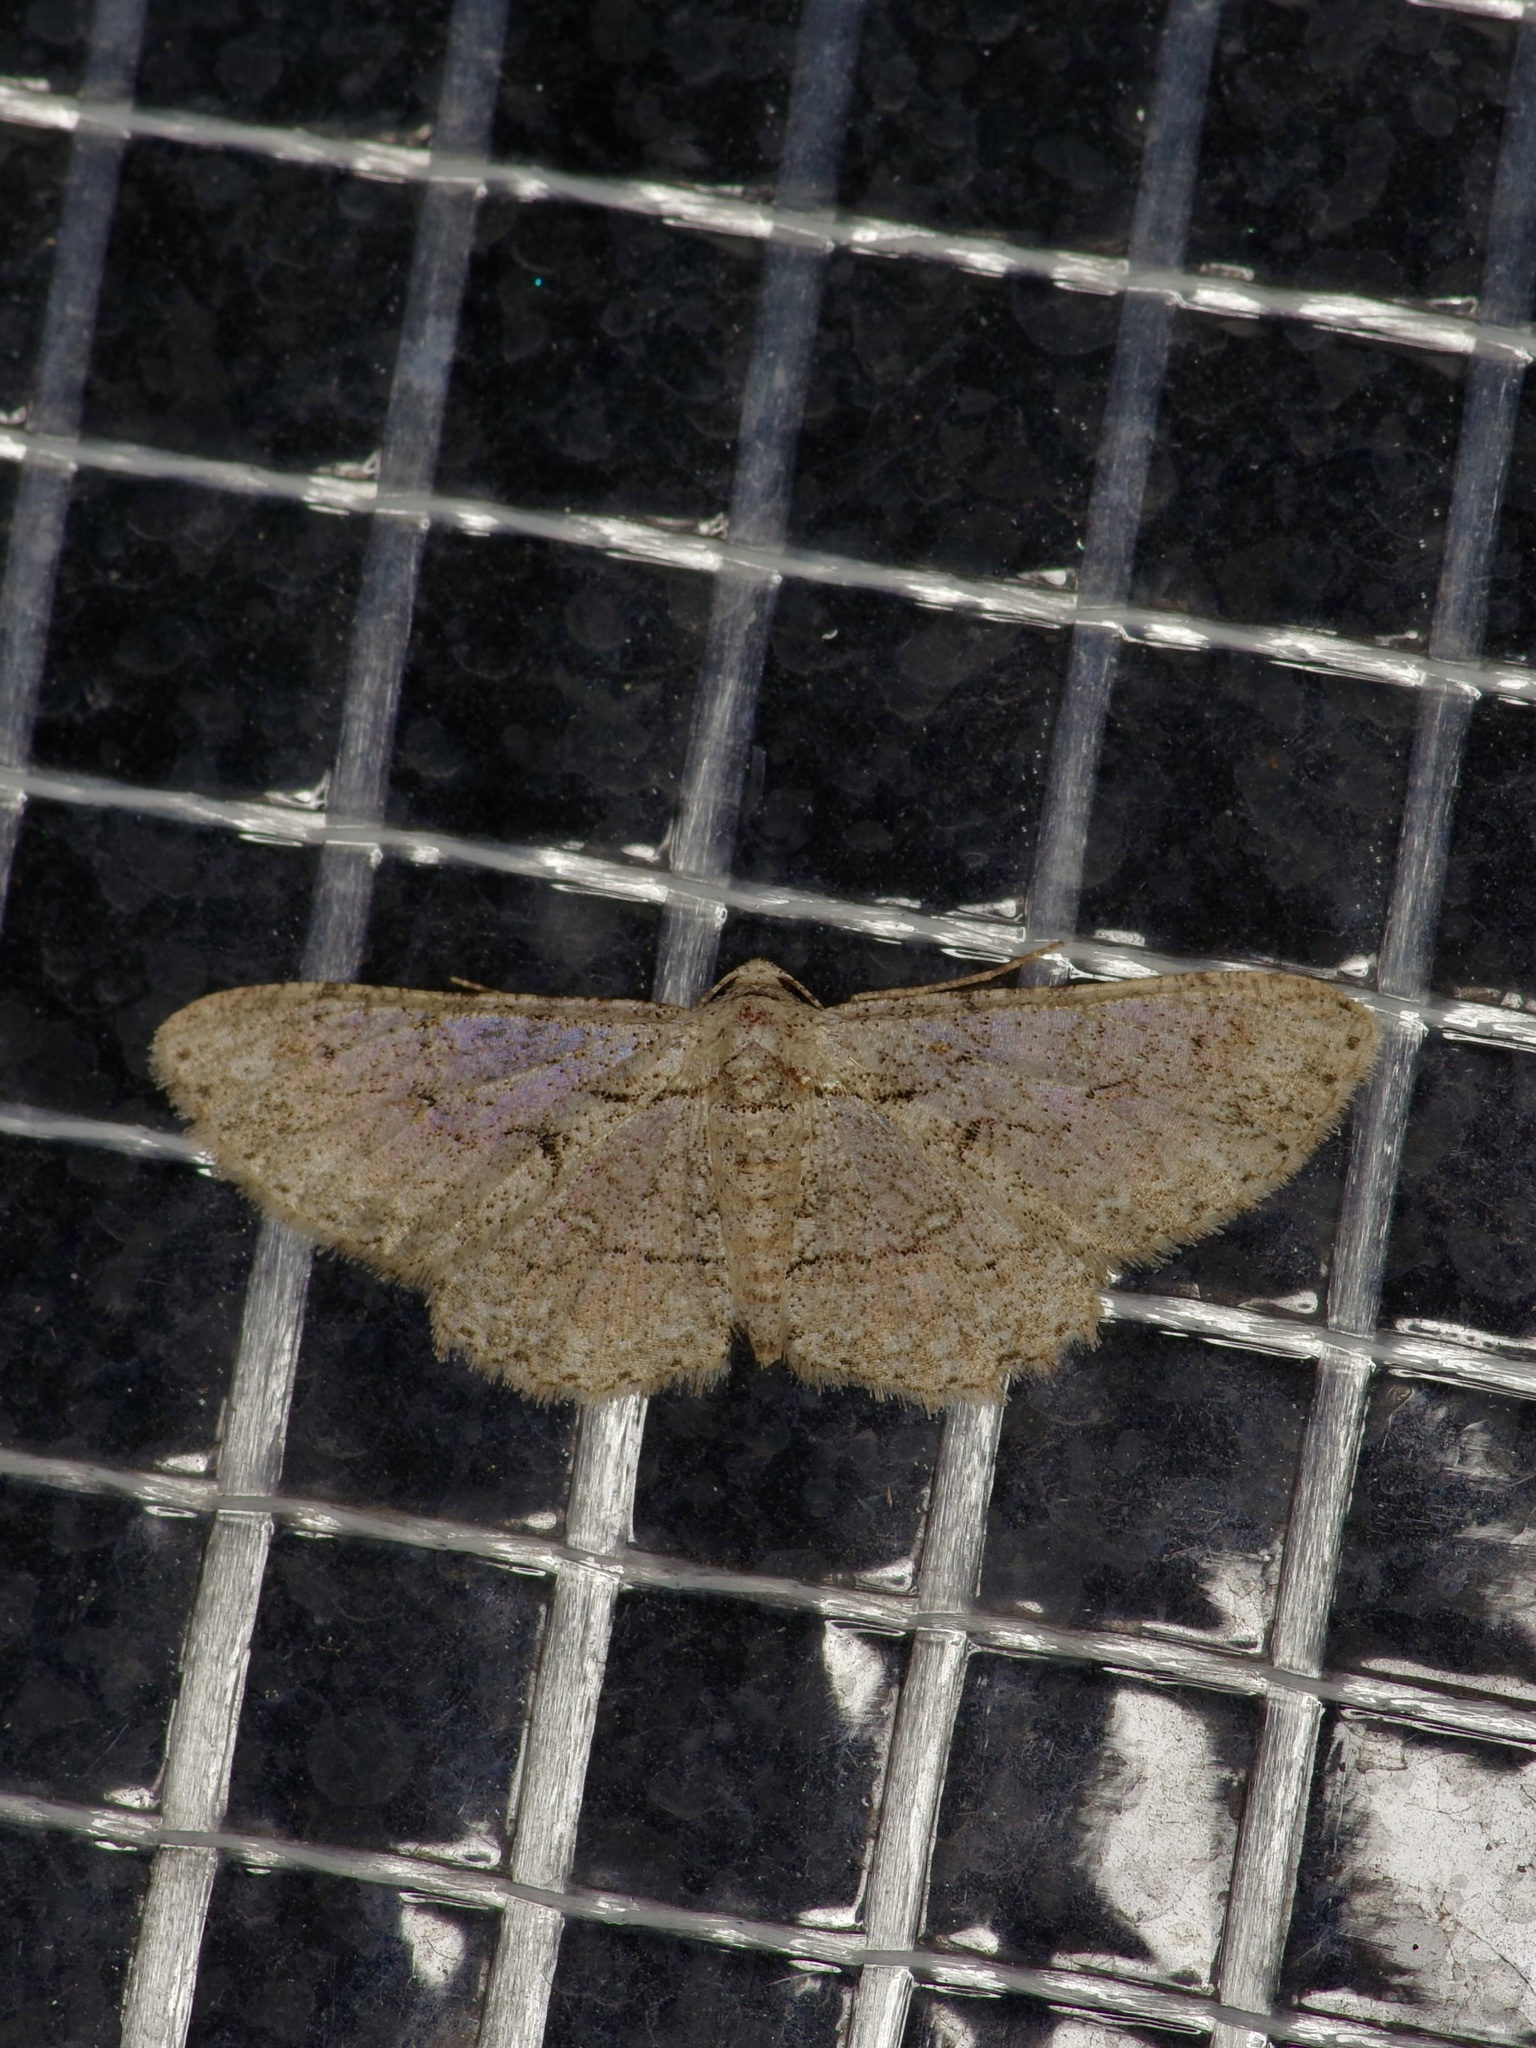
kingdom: Animalia
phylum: Arthropoda
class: Insecta
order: Lepidoptera
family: Geometridae
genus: Iridopsis
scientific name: Iridopsis defectaria
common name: Brown-shaded gray
